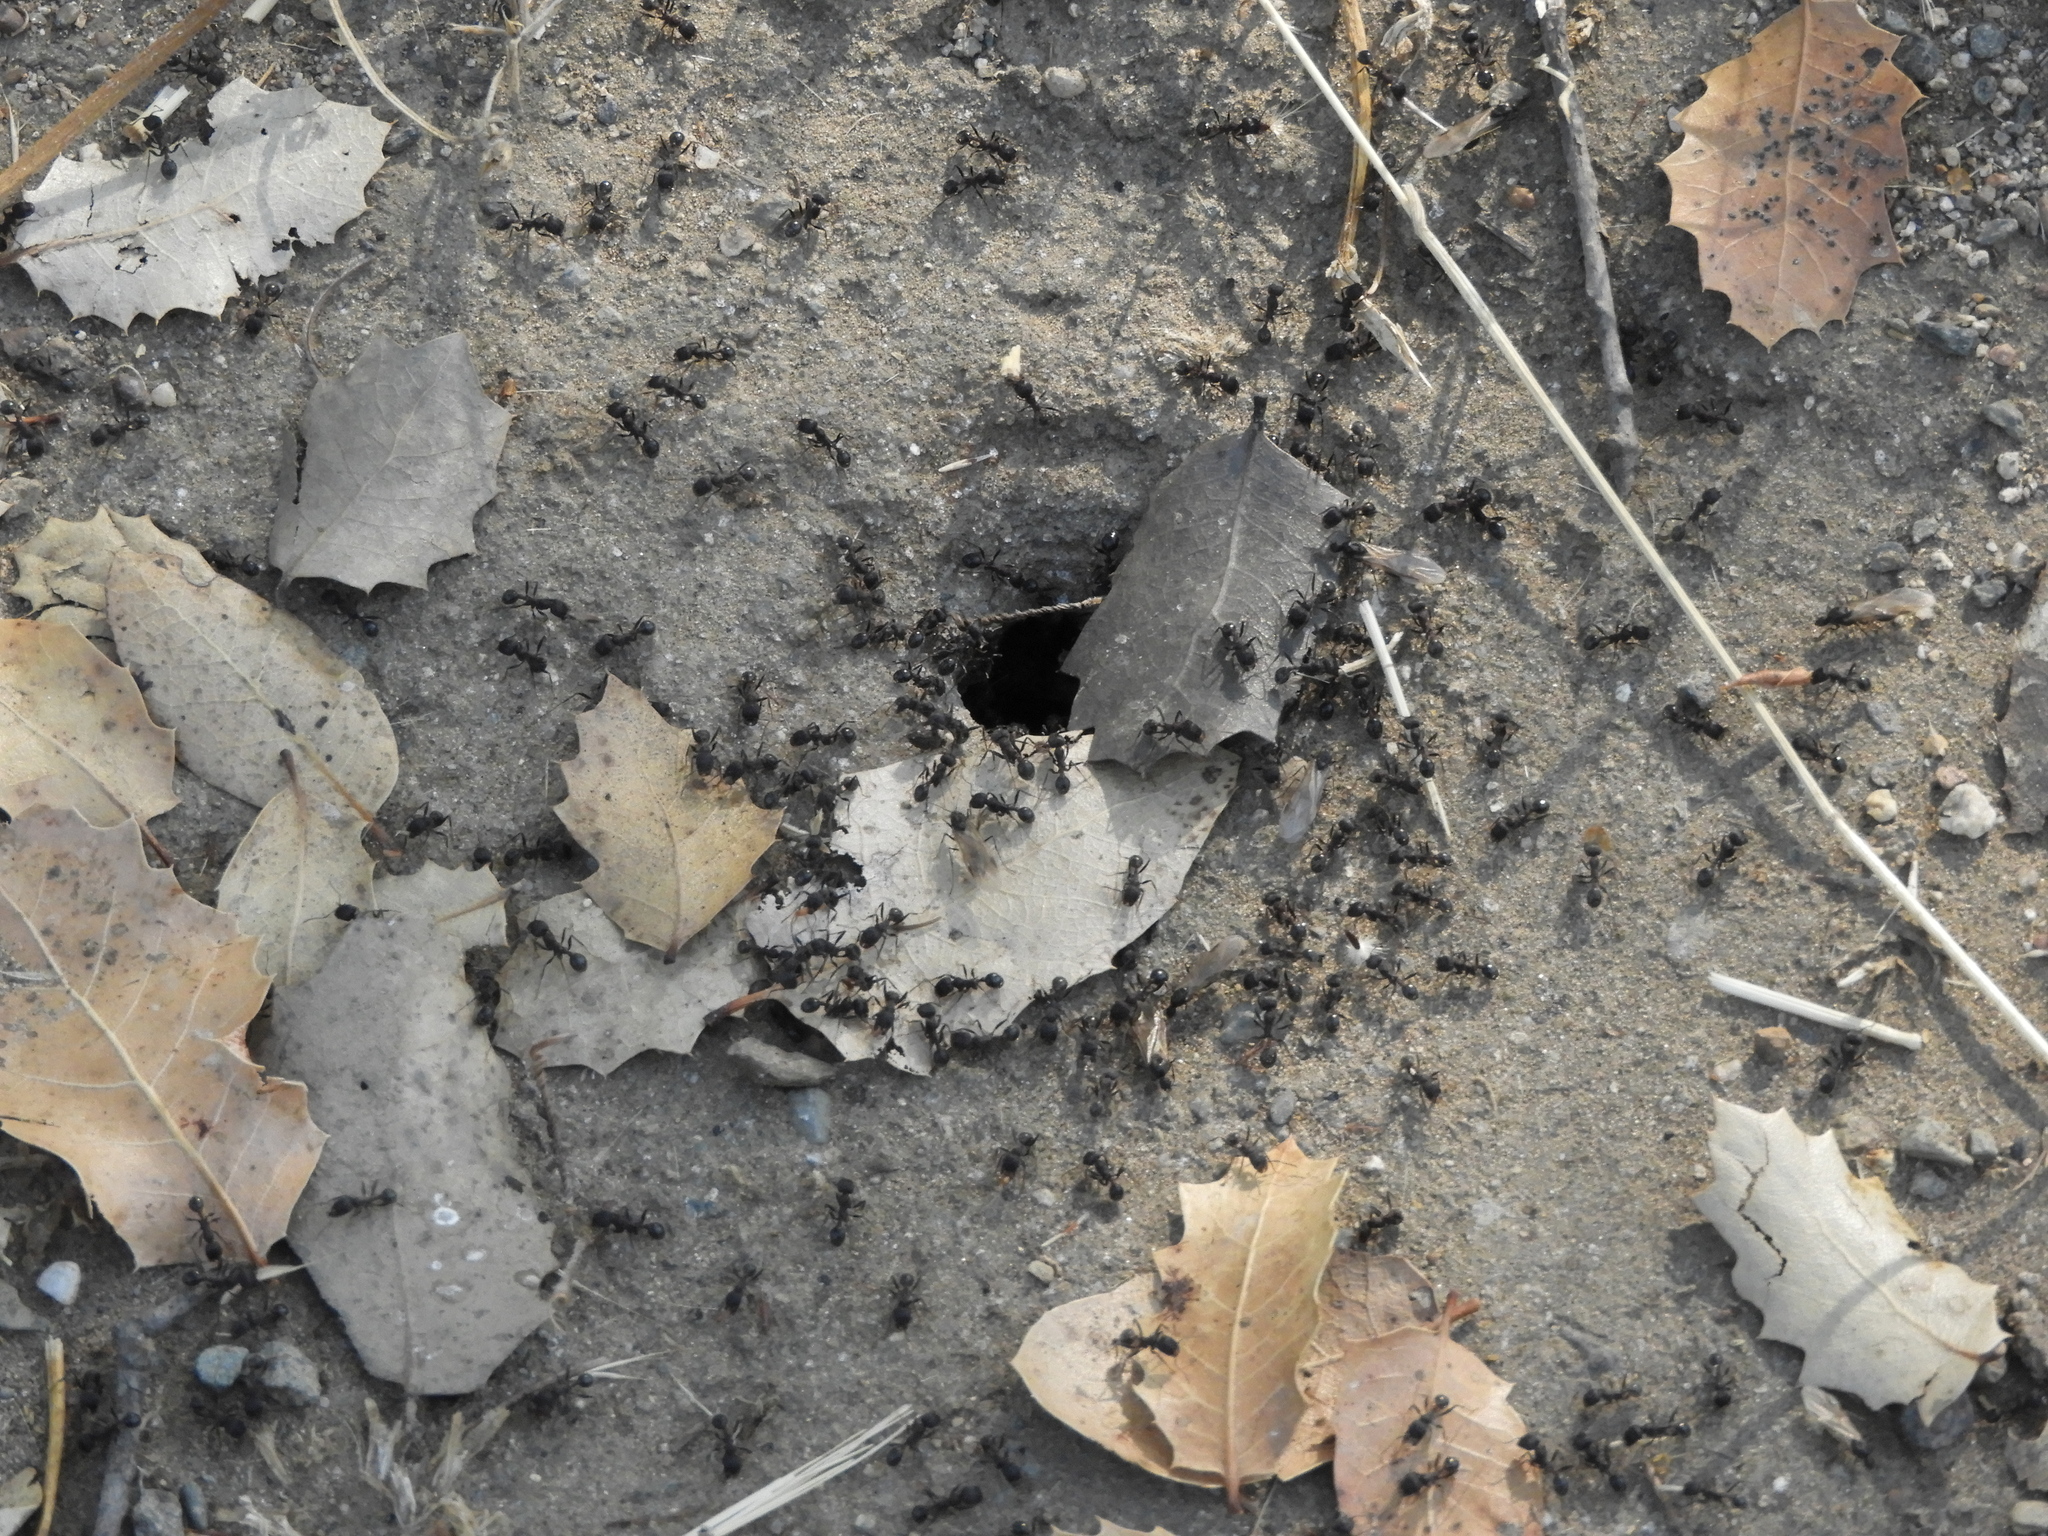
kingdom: Animalia
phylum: Arthropoda
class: Insecta
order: Hymenoptera
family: Formicidae
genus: Veromessor
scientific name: Veromessor andrei
